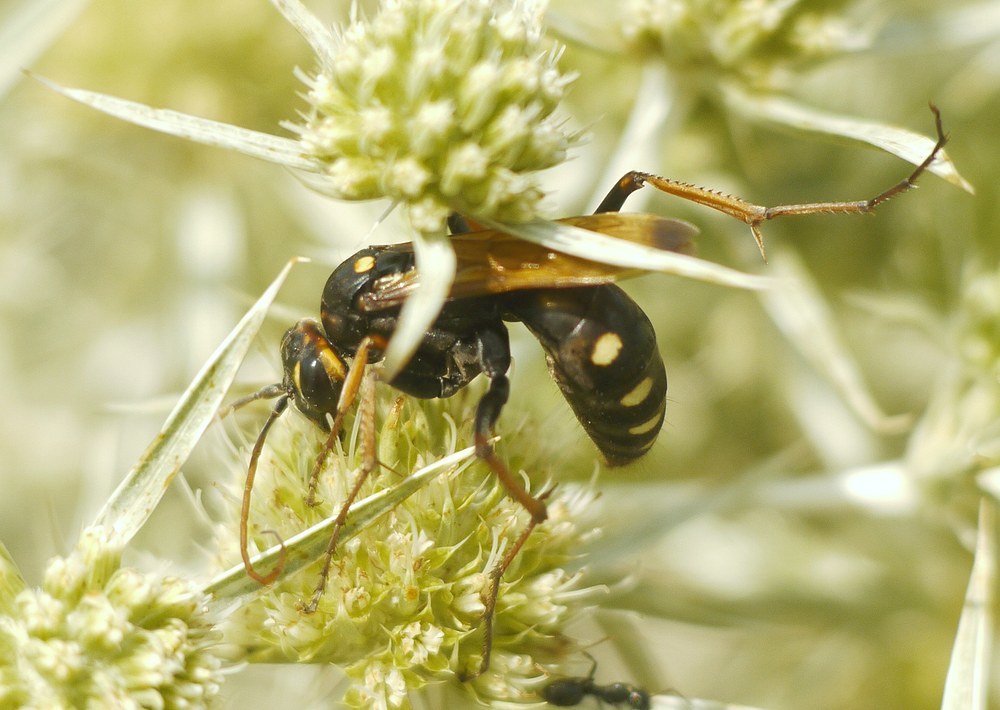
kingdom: Animalia
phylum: Arthropoda
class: Insecta
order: Hymenoptera
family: Pompilidae
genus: Cryptocheilus
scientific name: Cryptocheilus octomaculatus
